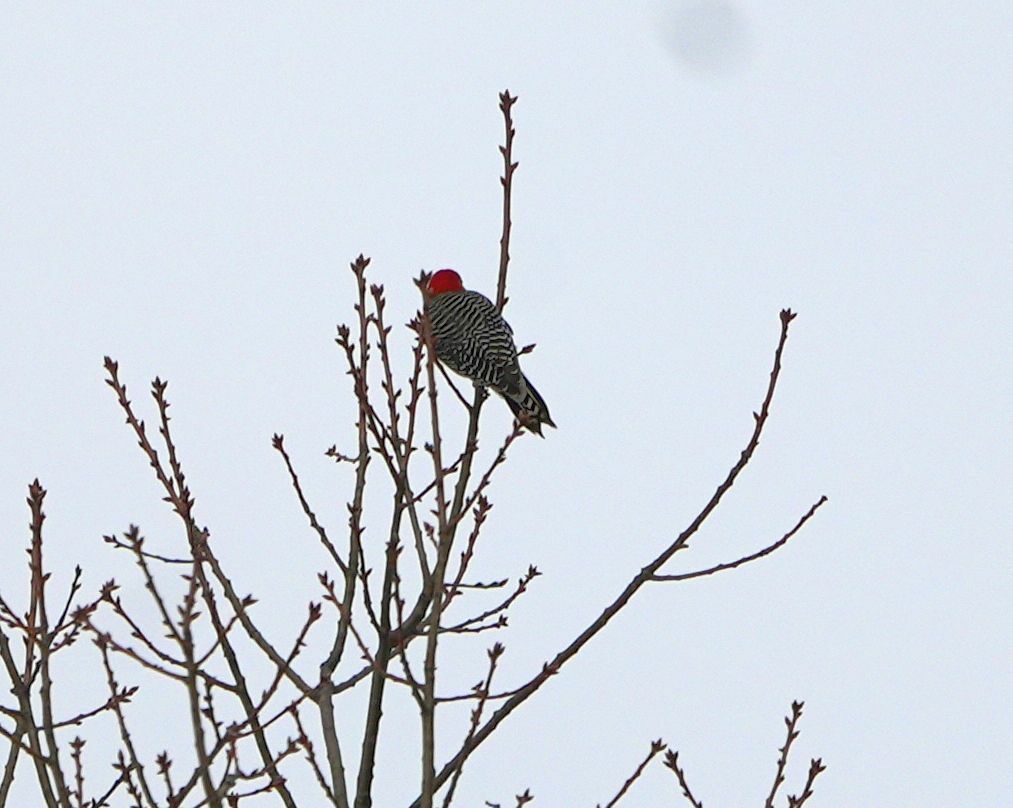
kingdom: Animalia
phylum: Chordata
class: Aves
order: Piciformes
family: Picidae
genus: Melanerpes
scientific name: Melanerpes carolinus
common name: Red-bellied woodpecker
